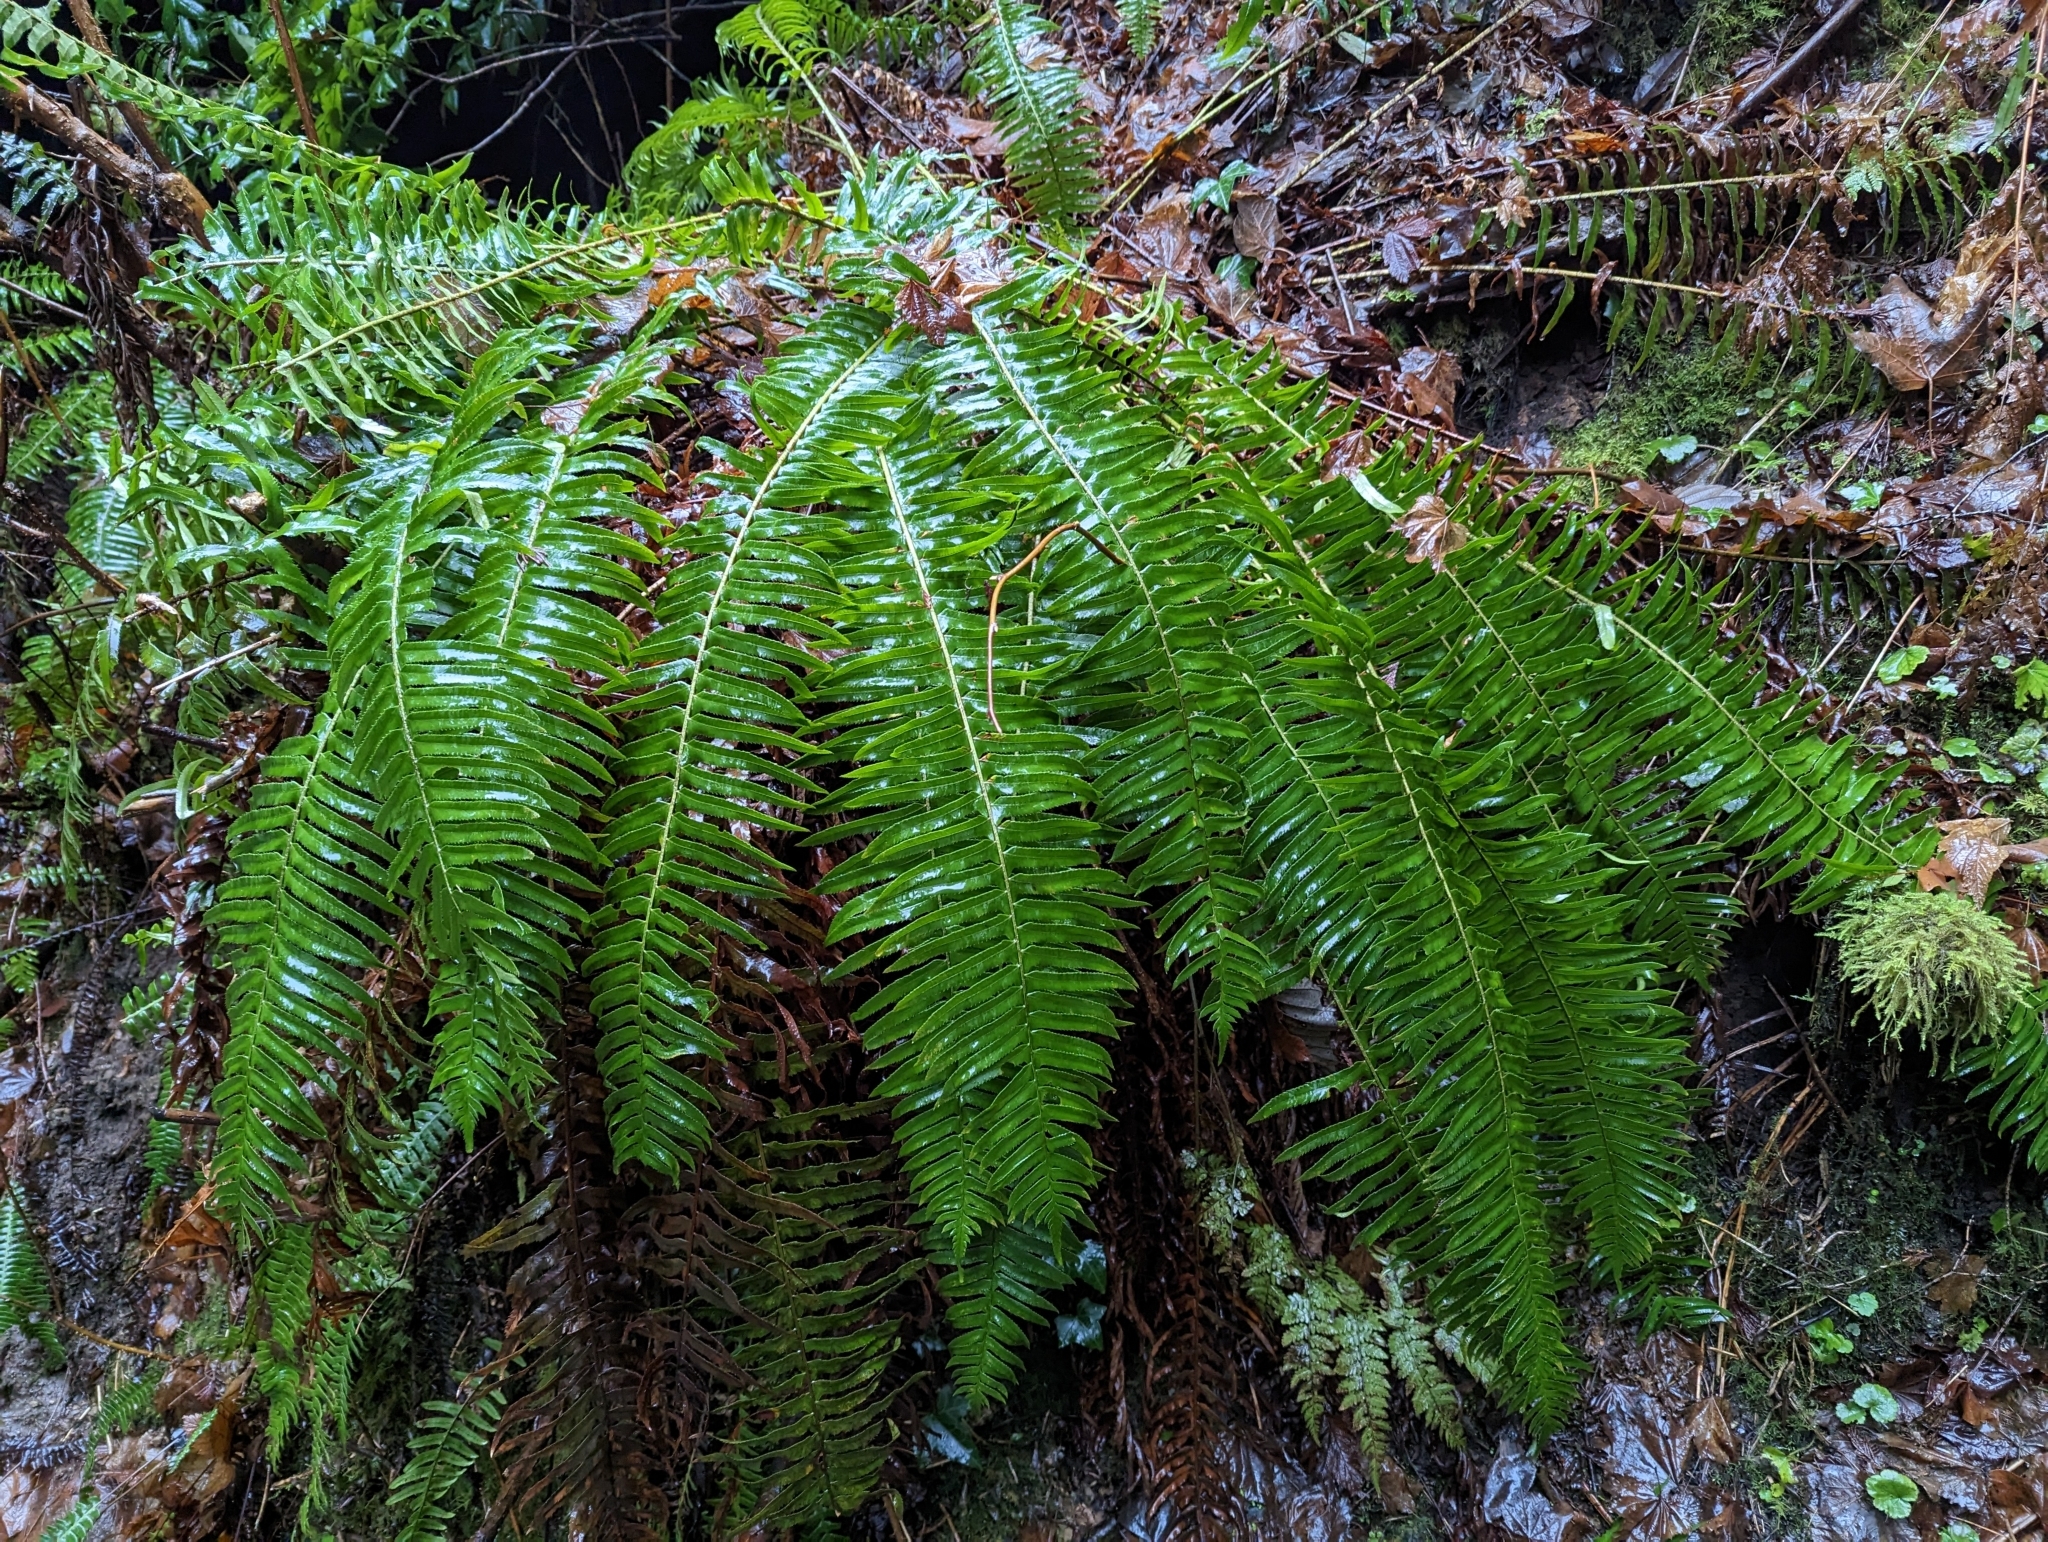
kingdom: Plantae
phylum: Tracheophyta
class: Polypodiopsida
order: Polypodiales
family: Dryopteridaceae
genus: Polystichum
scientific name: Polystichum munitum
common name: Western sword-fern
